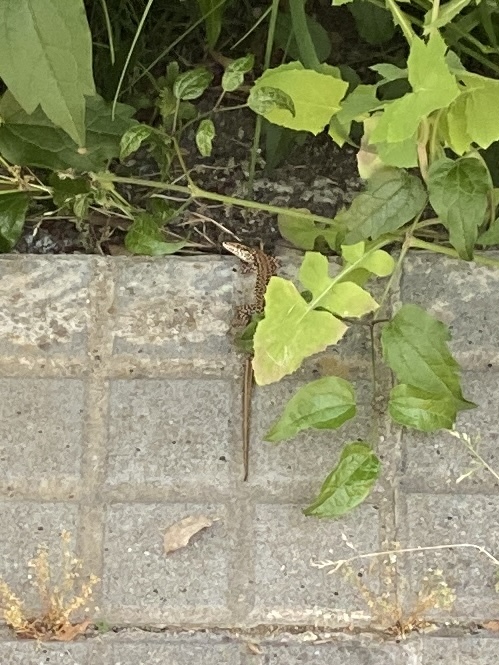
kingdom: Animalia
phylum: Chordata
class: Squamata
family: Lacertidae
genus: Podarcis
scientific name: Podarcis liolepis
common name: Catalonian wall lizard
